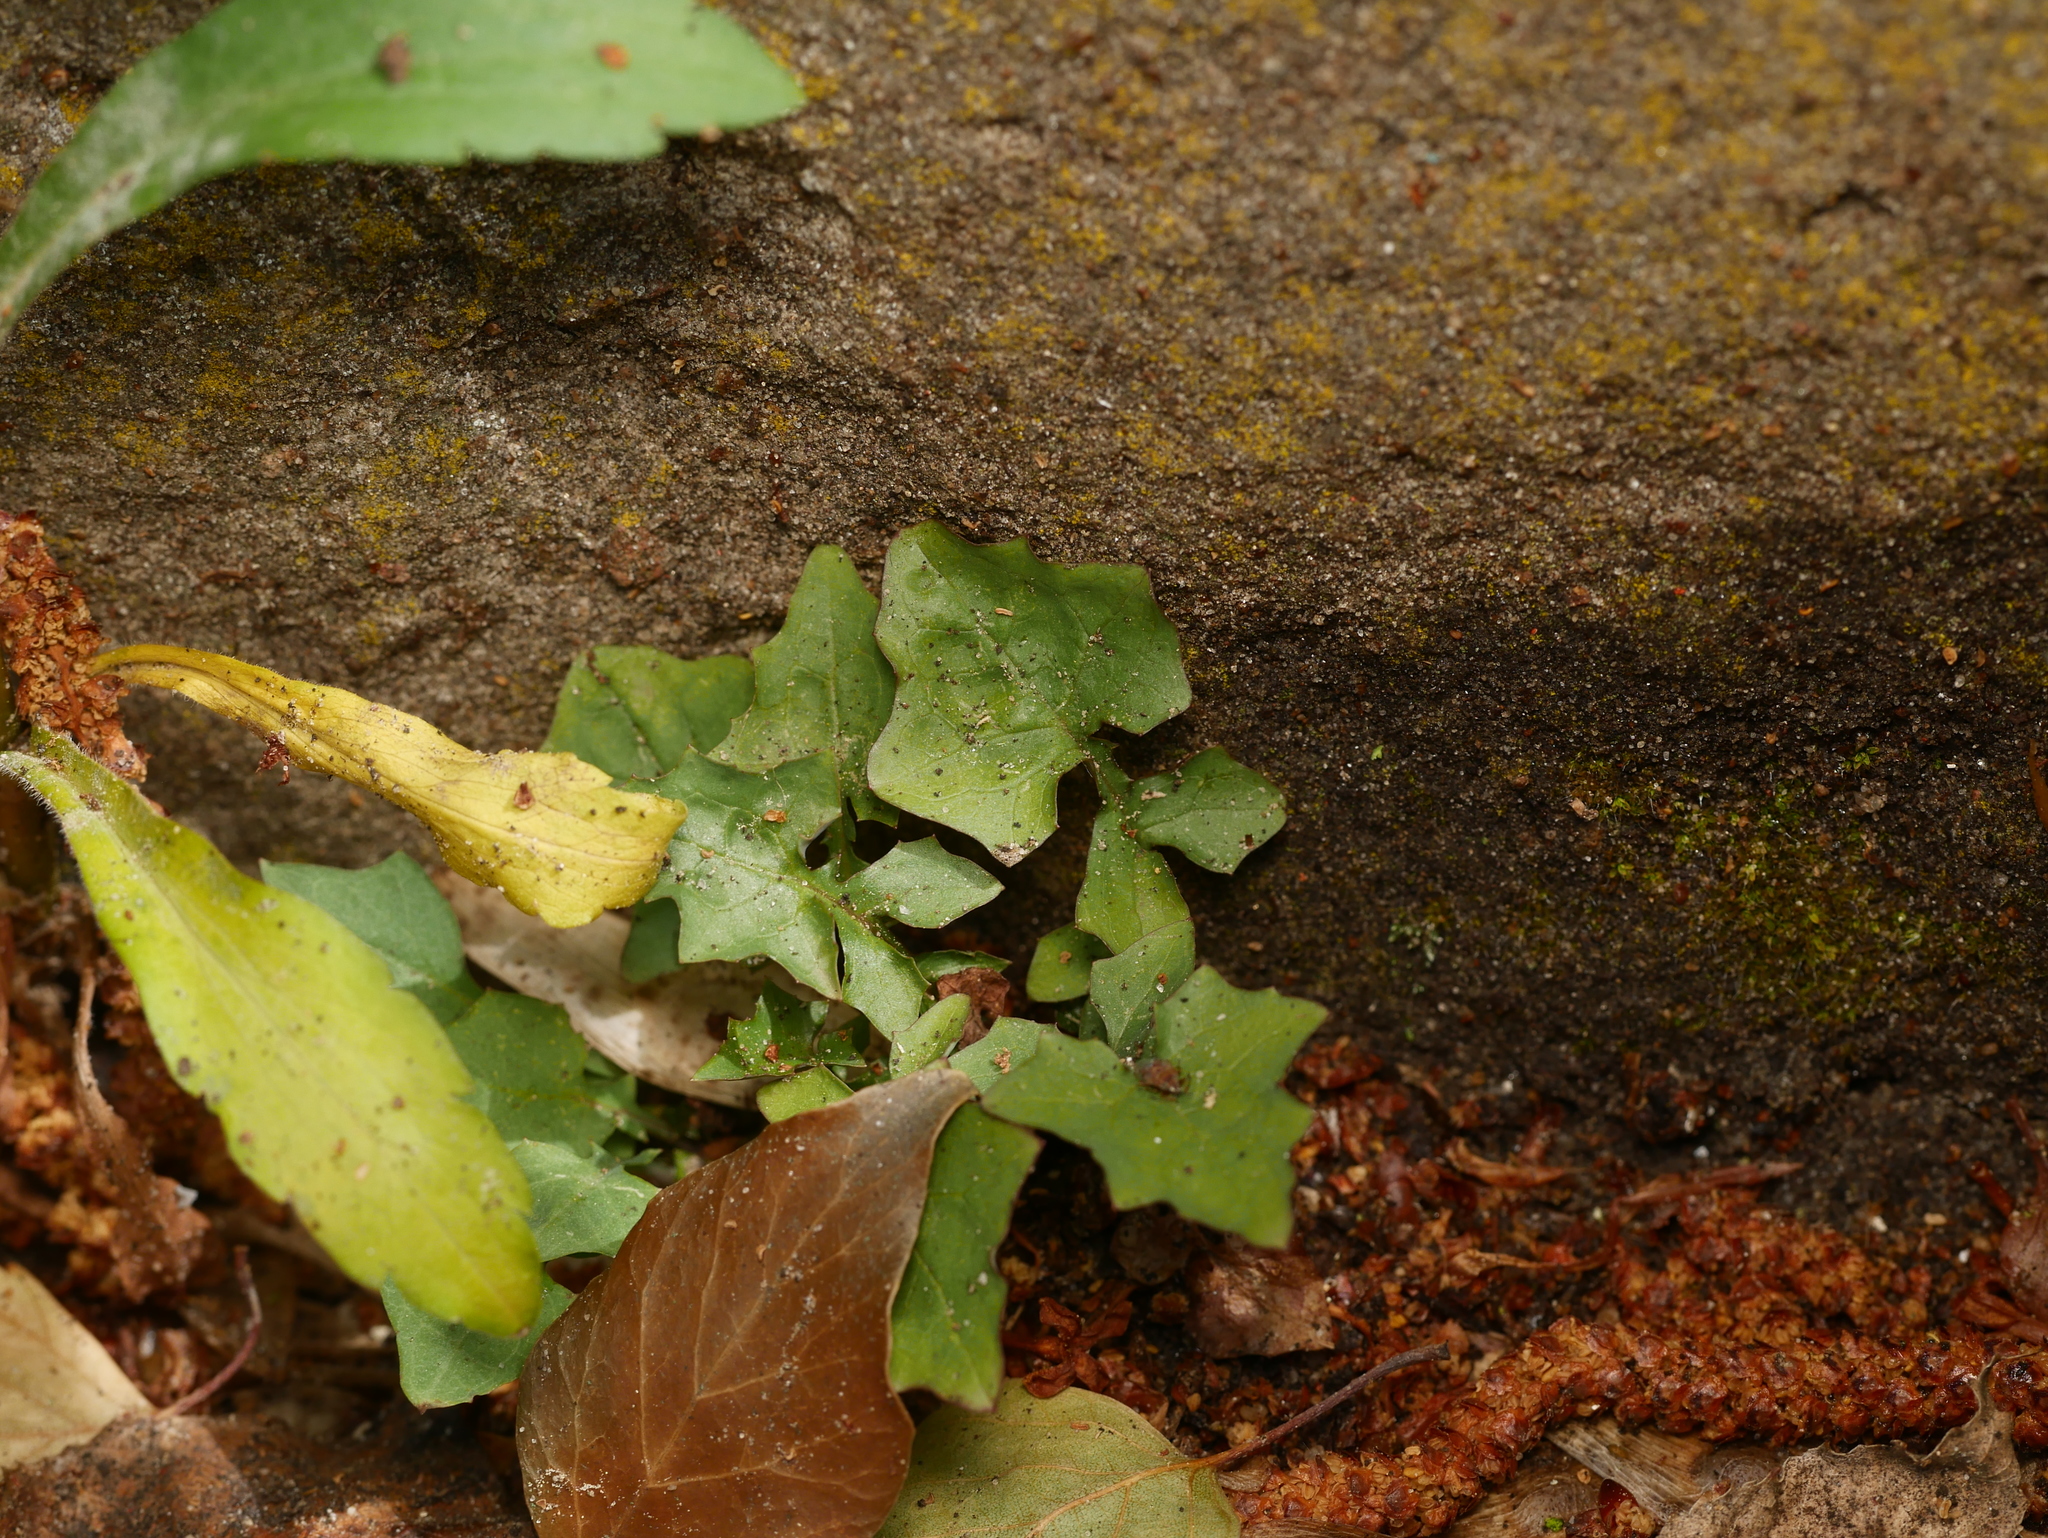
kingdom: Plantae
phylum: Tracheophyta
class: Magnoliopsida
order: Asterales
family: Asteraceae
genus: Mycelis
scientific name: Mycelis muralis
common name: Wall lettuce
